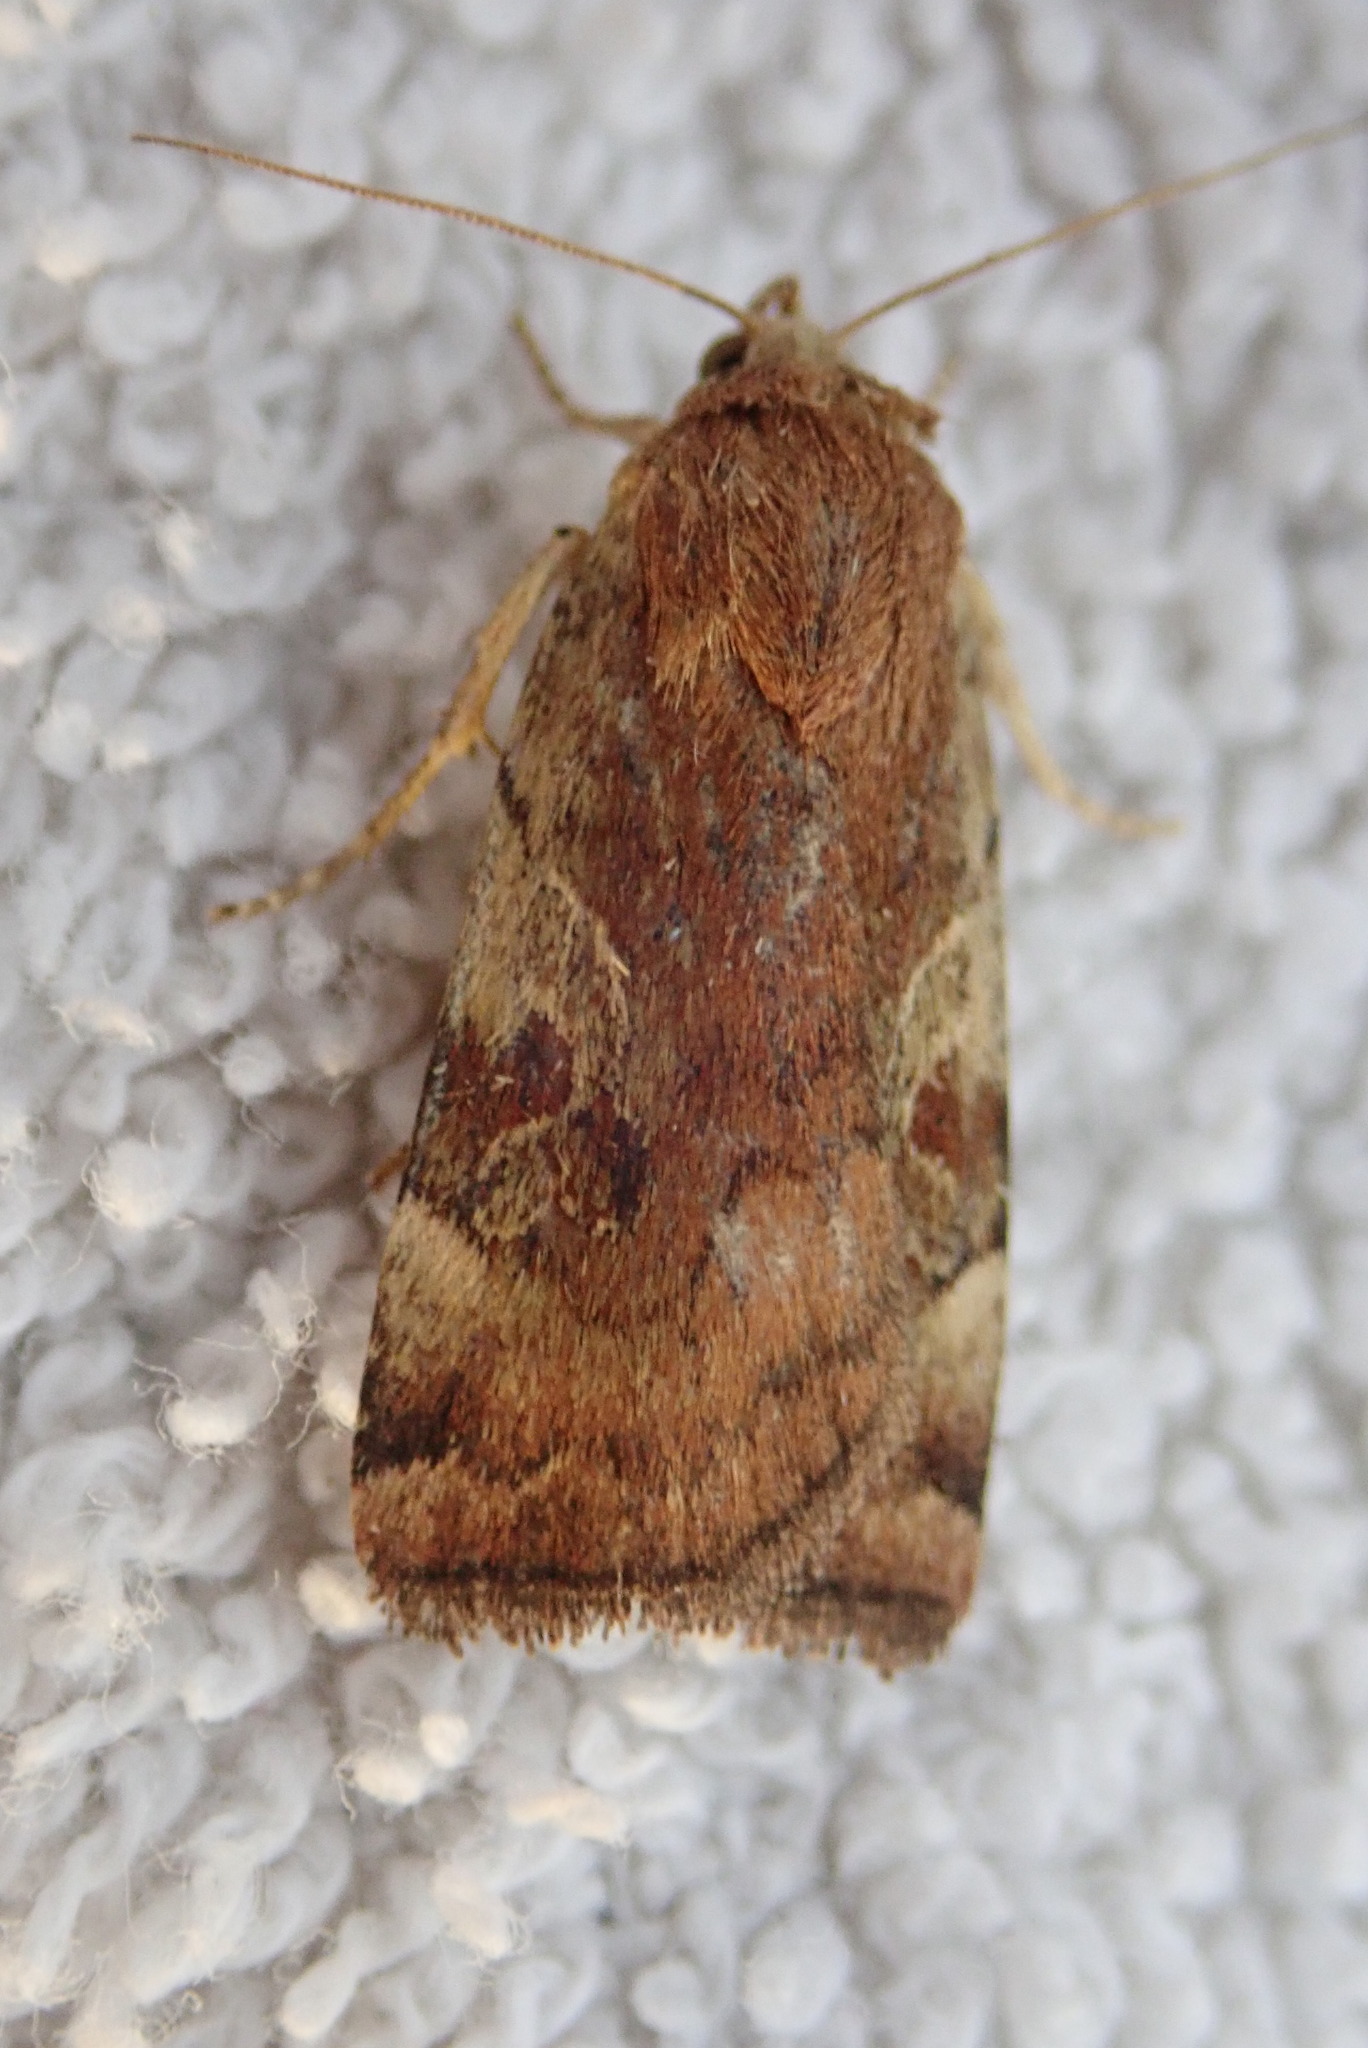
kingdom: Animalia
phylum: Arthropoda
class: Insecta
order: Lepidoptera
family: Noctuidae
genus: Cryptocala
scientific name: Cryptocala acadiensis
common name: Catocaline dart
